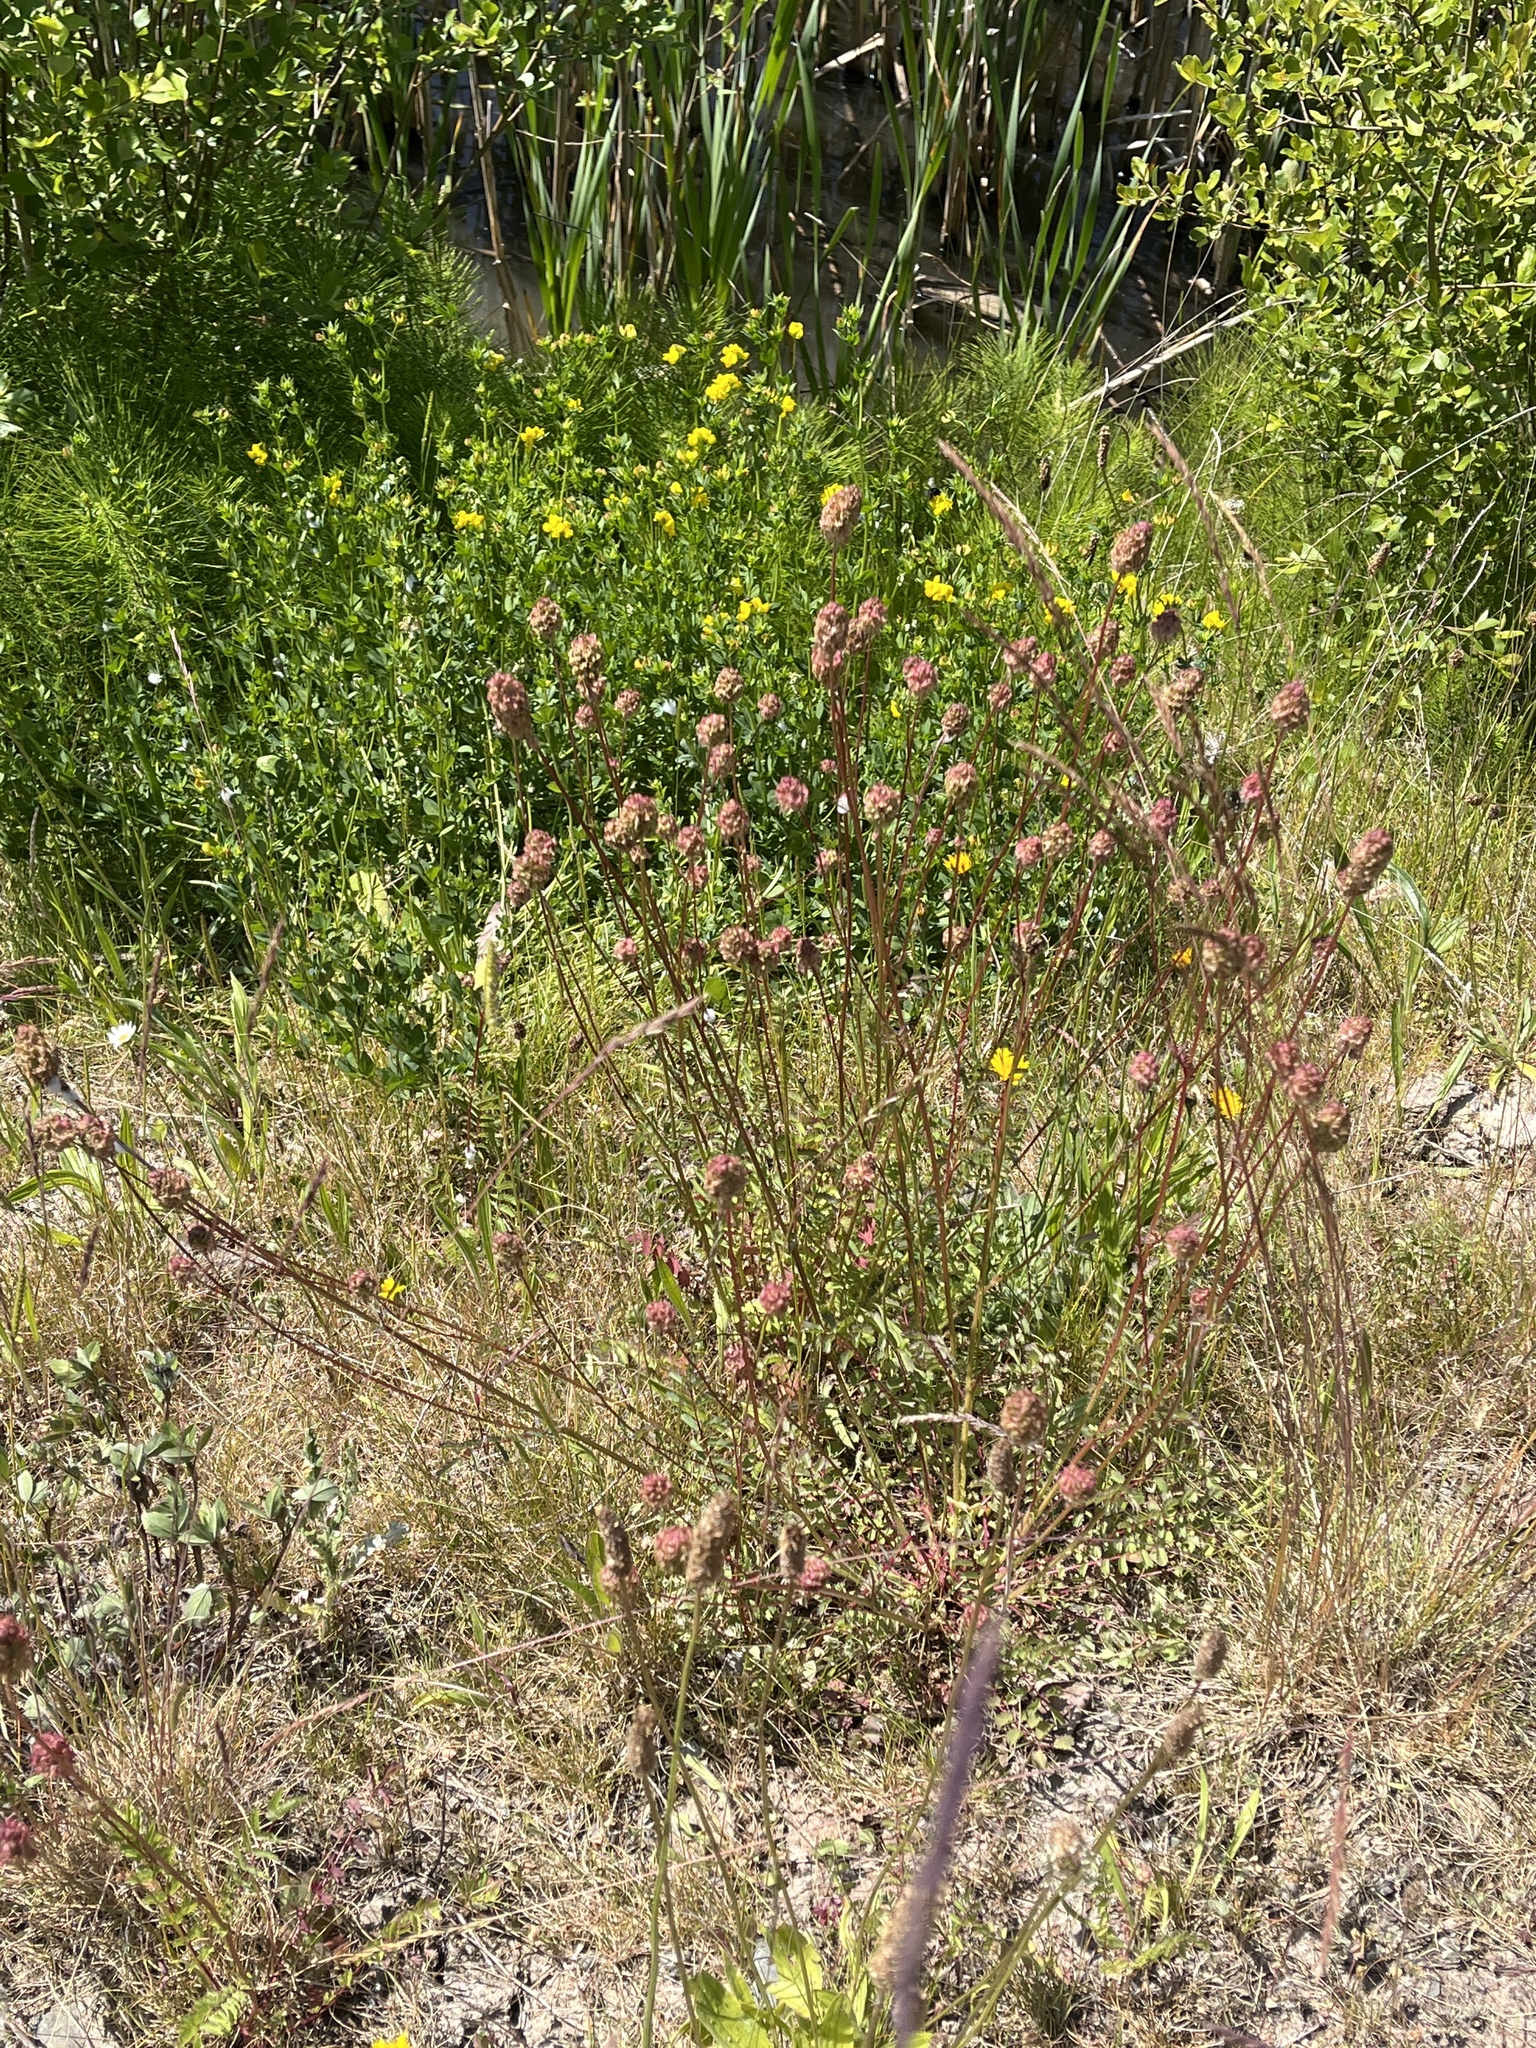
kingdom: Plantae
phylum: Tracheophyta
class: Magnoliopsida
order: Rosales
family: Rosaceae
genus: Poterium
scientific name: Poterium sanguisorba
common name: Salad burnet
